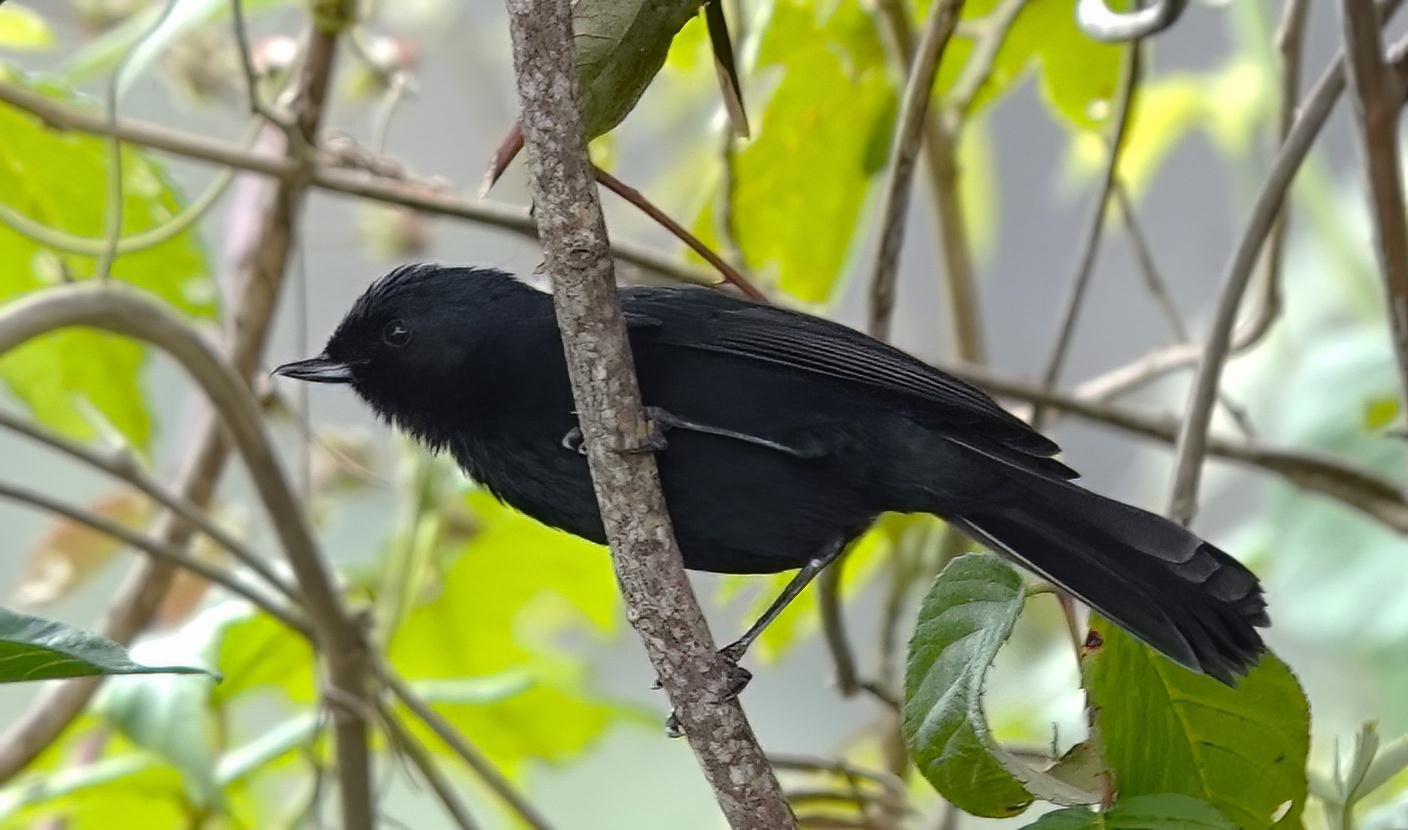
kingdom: Animalia
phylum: Chordata
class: Aves
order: Passeriformes
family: Thraupidae
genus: Diglossa
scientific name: Diglossa humeralis
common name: Black flowerpiercer
